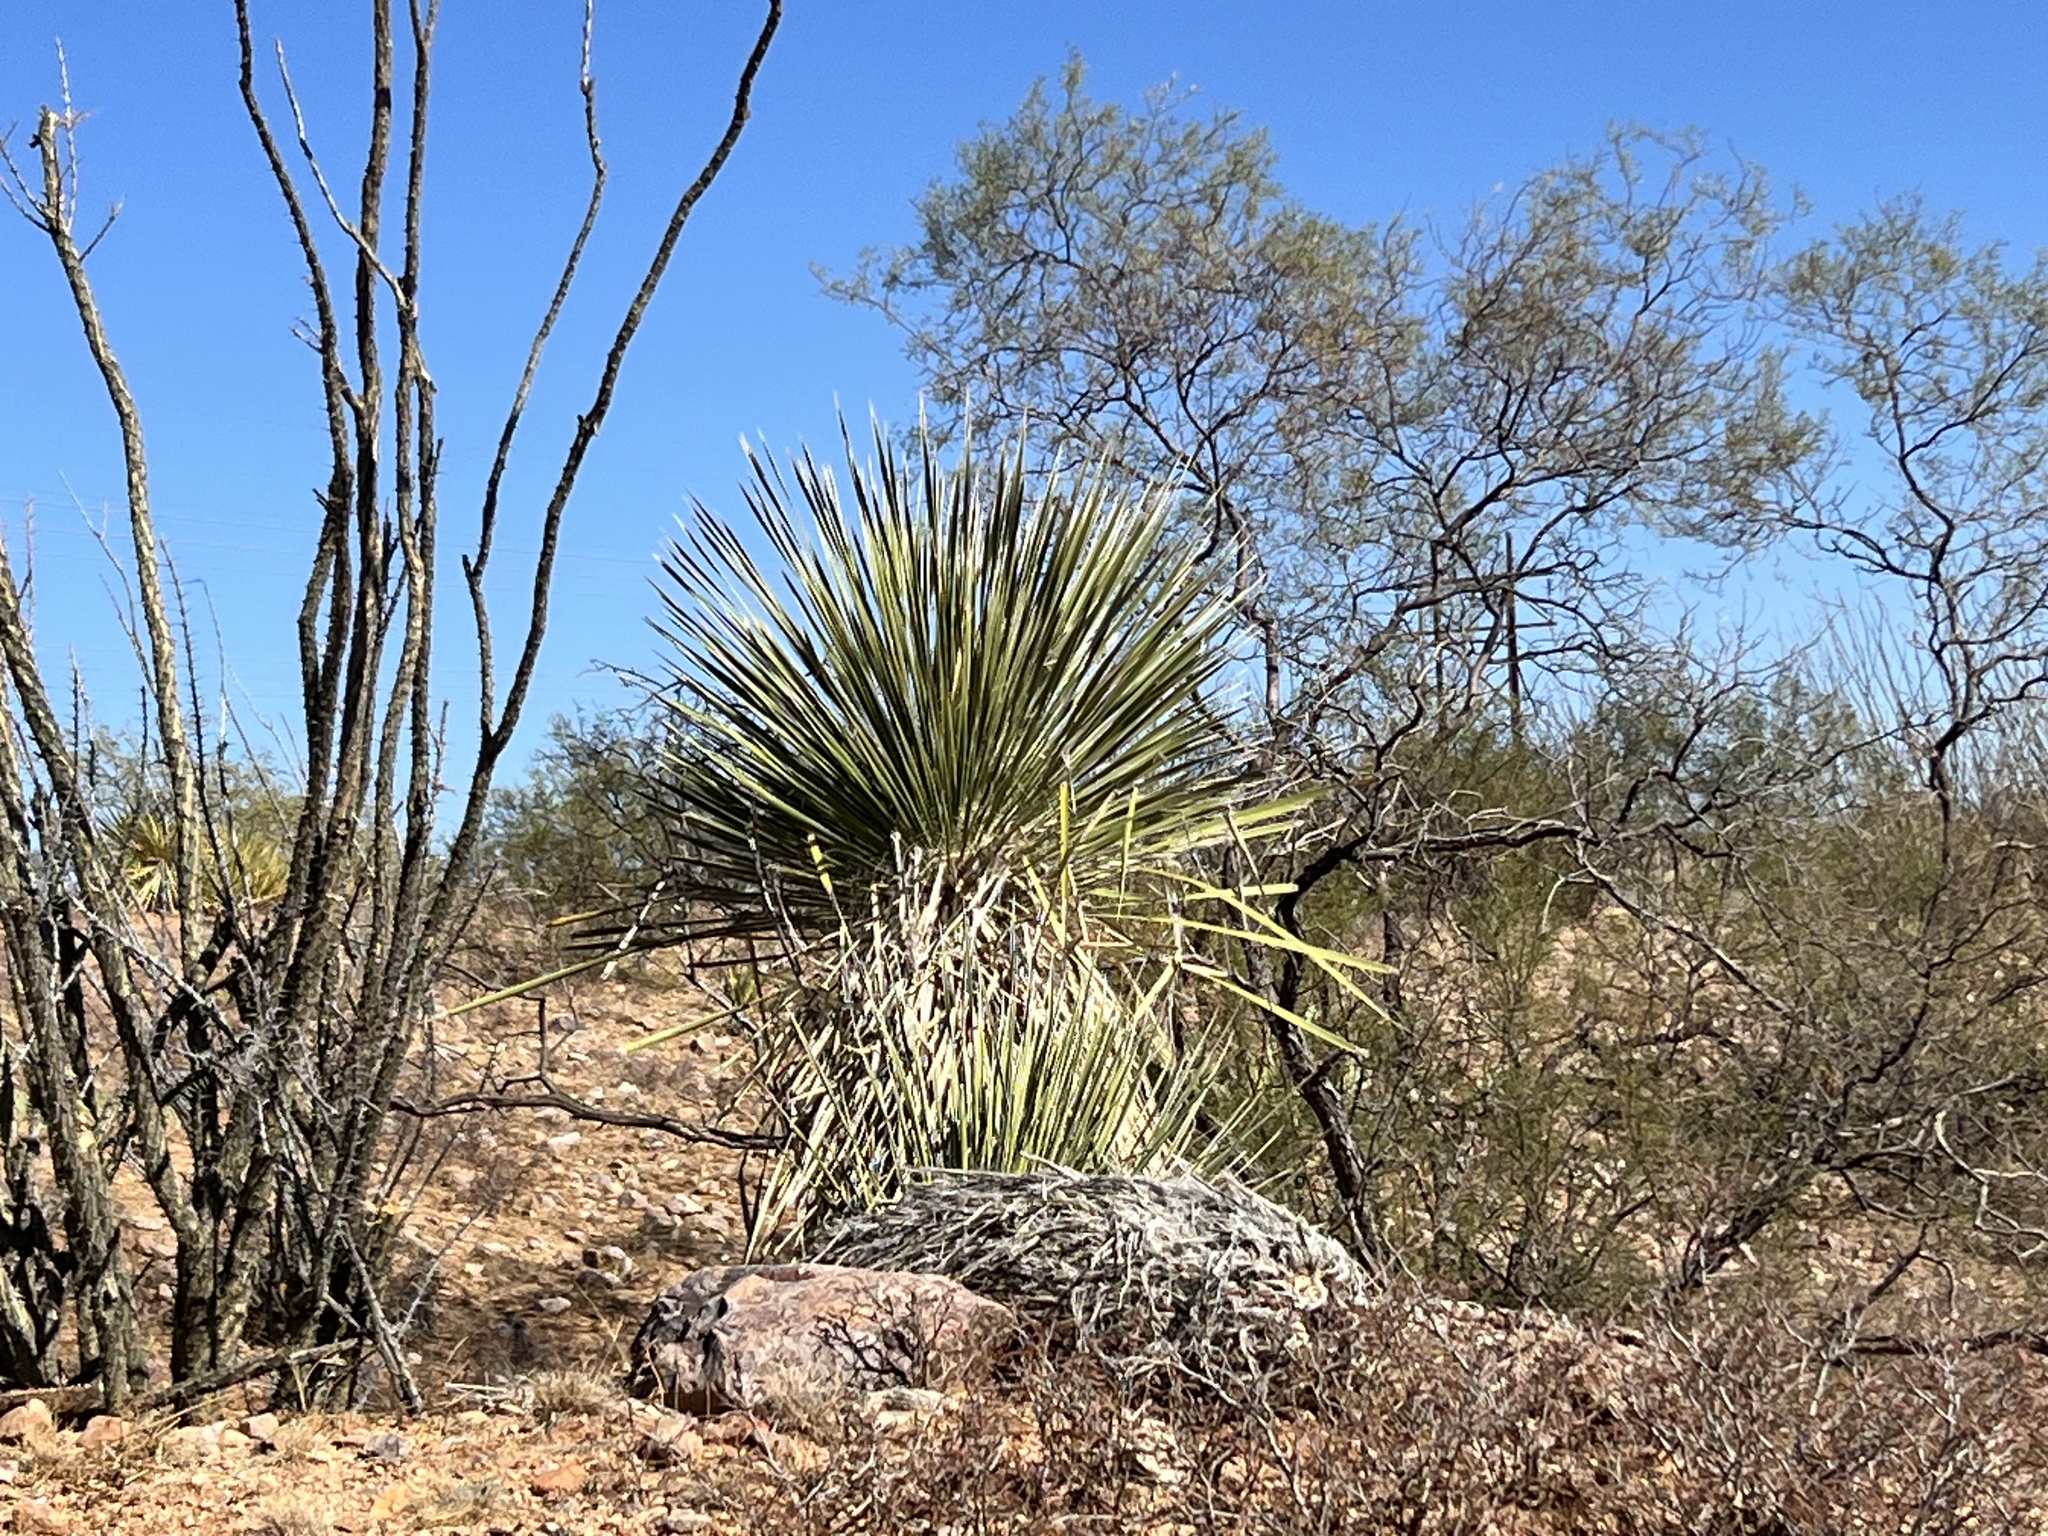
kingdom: Plantae
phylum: Tracheophyta
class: Liliopsida
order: Asparagales
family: Asparagaceae
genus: Yucca
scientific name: Yucca elata
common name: Palmella
